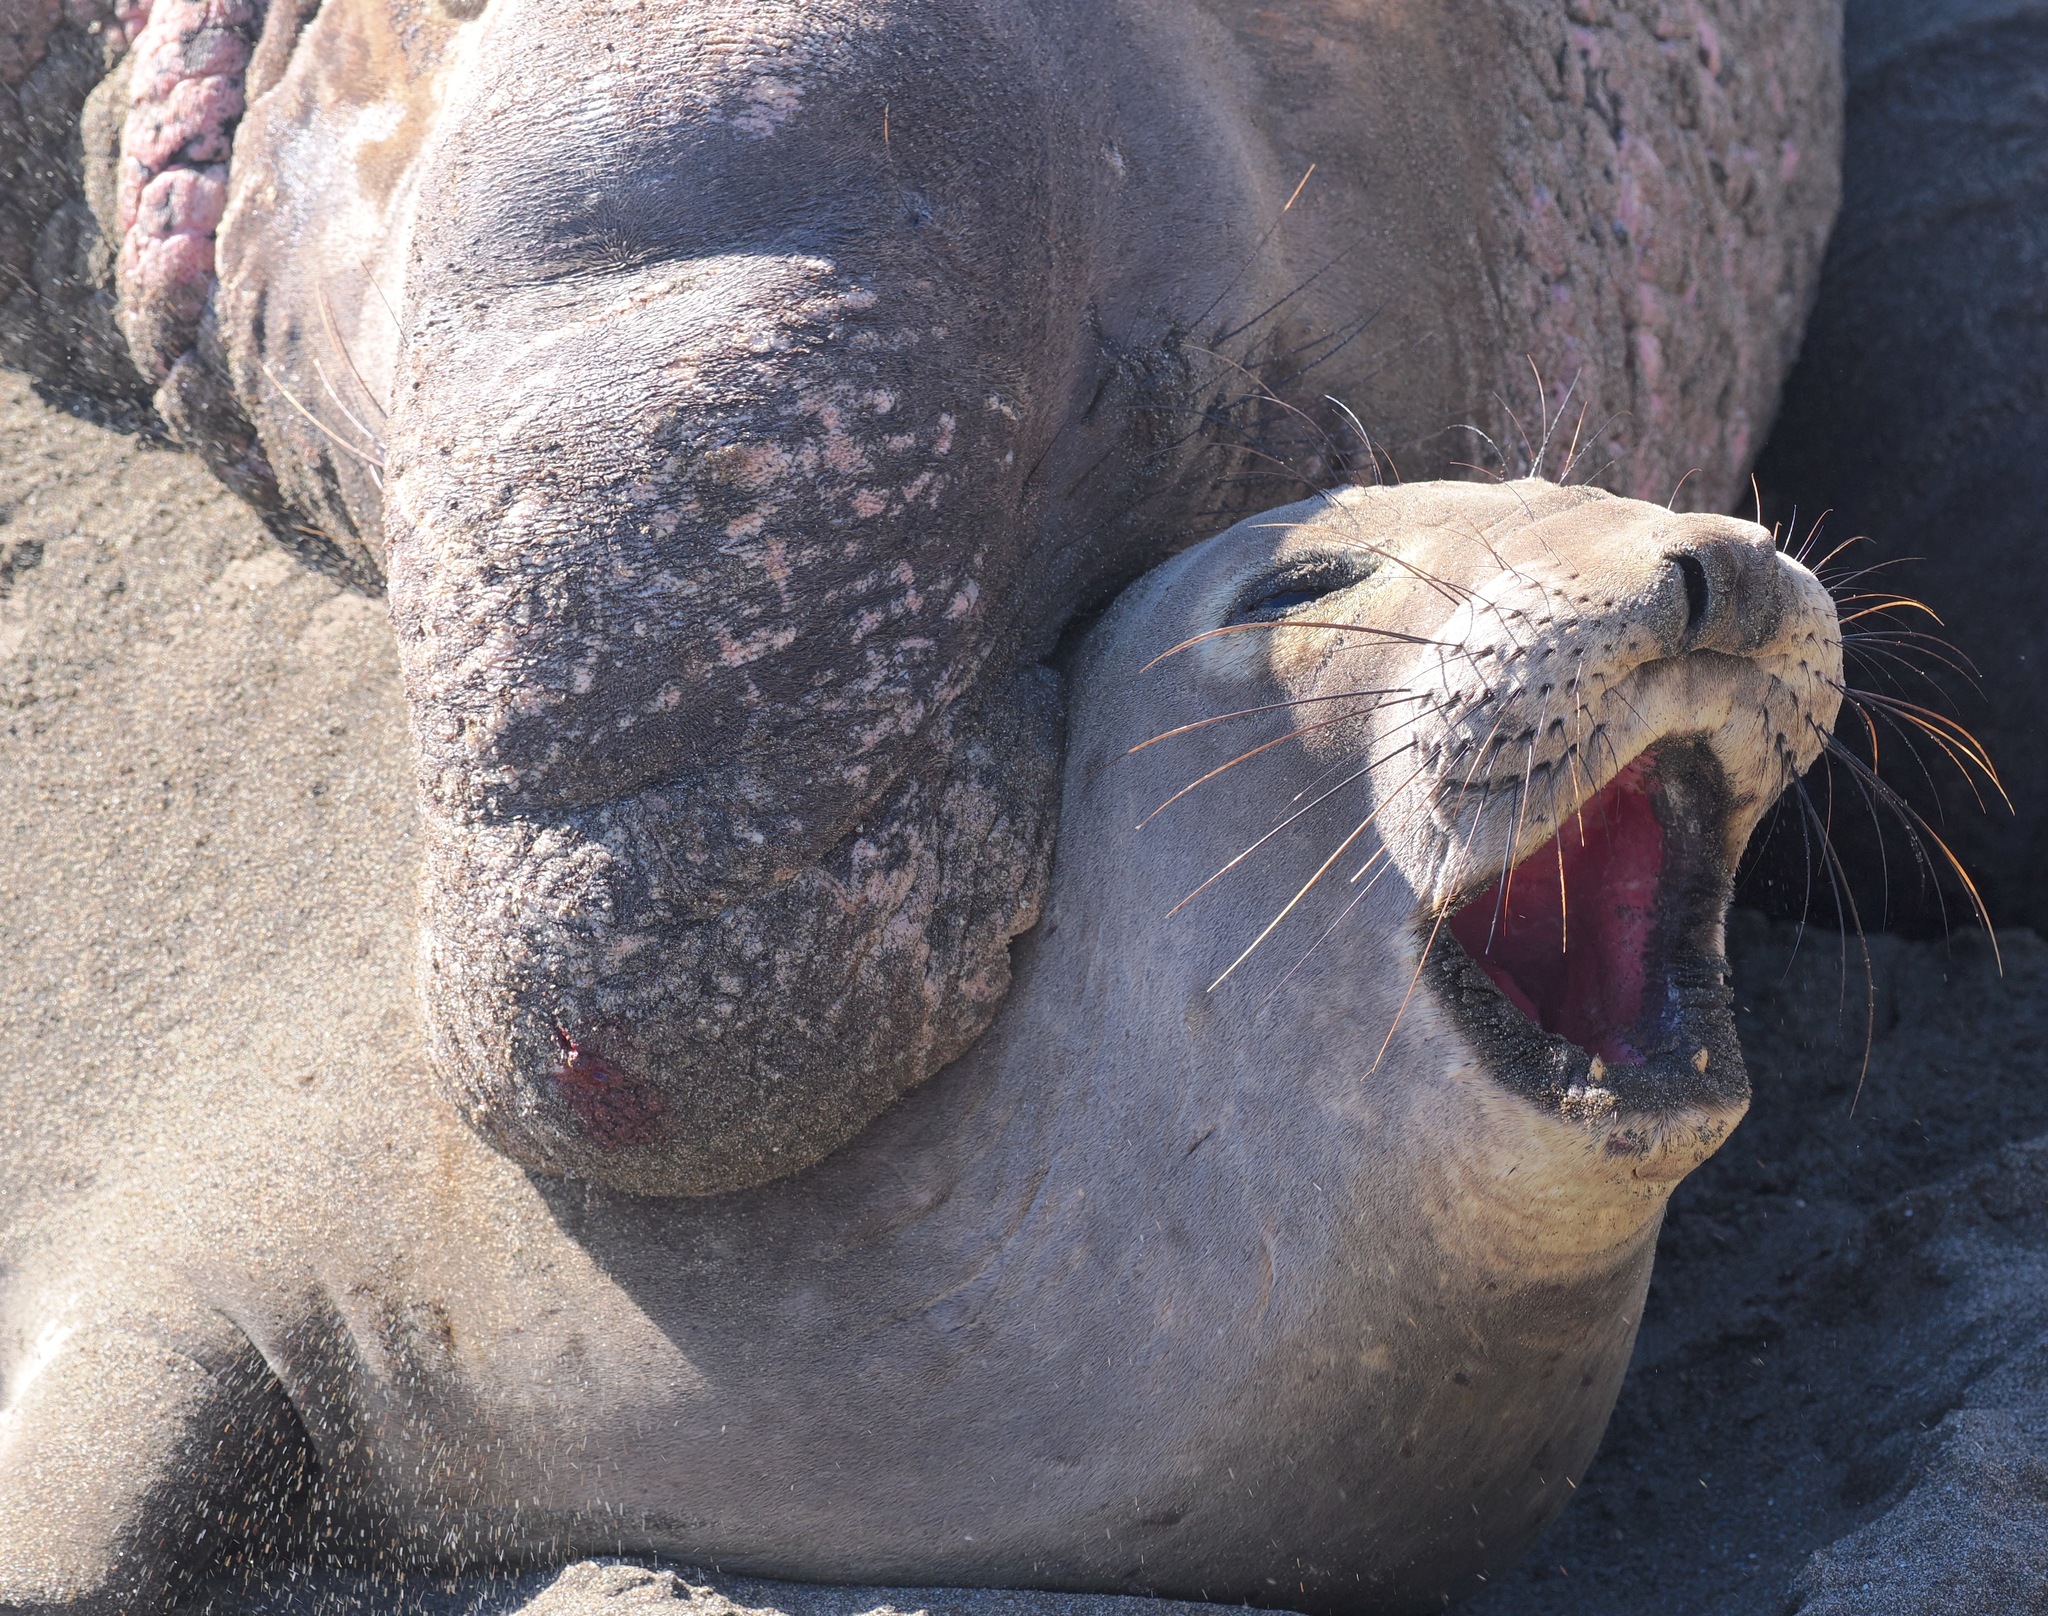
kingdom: Animalia
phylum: Chordata
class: Mammalia
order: Carnivora
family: Phocidae
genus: Mirounga
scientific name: Mirounga angustirostris
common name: Northern elephant seal
